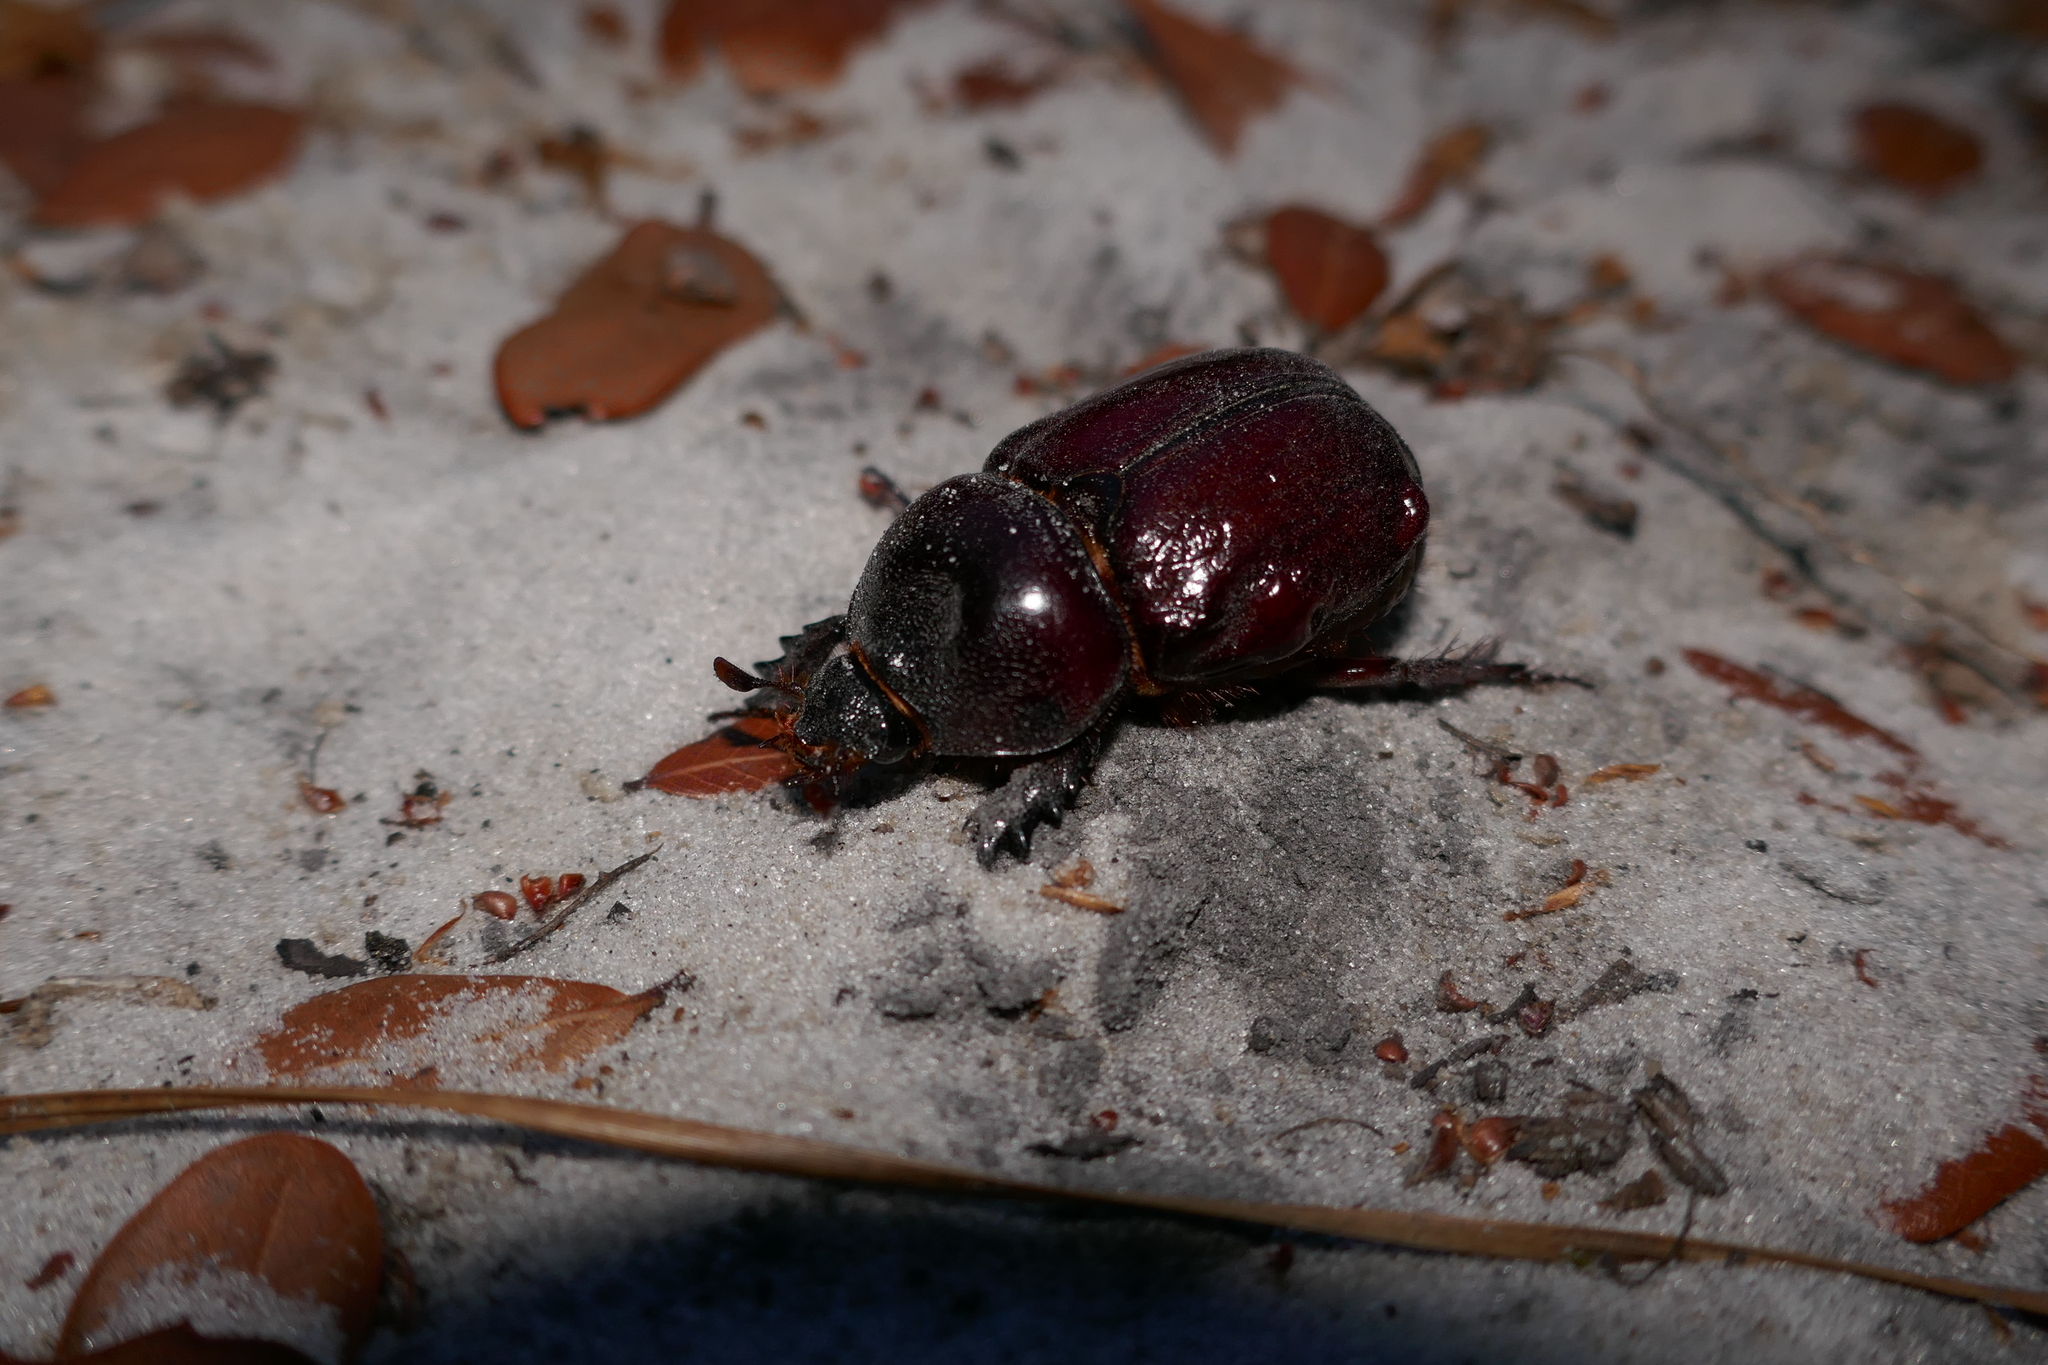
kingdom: Animalia
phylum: Arthropoda
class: Insecta
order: Coleoptera
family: Scarabaeidae
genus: Strategus
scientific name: Strategus splendens
